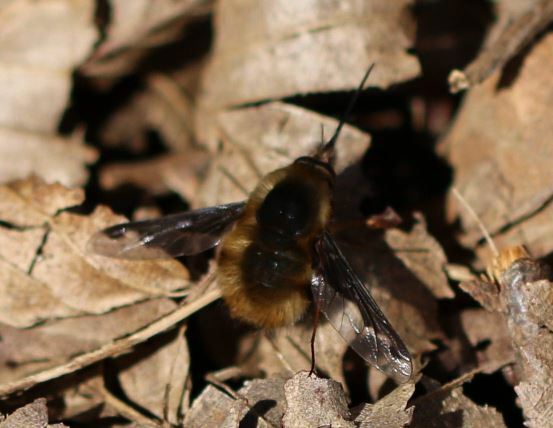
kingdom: Animalia
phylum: Arthropoda
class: Insecta
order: Diptera
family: Bombyliidae
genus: Bombylius
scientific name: Bombylius major
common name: Bee fly
